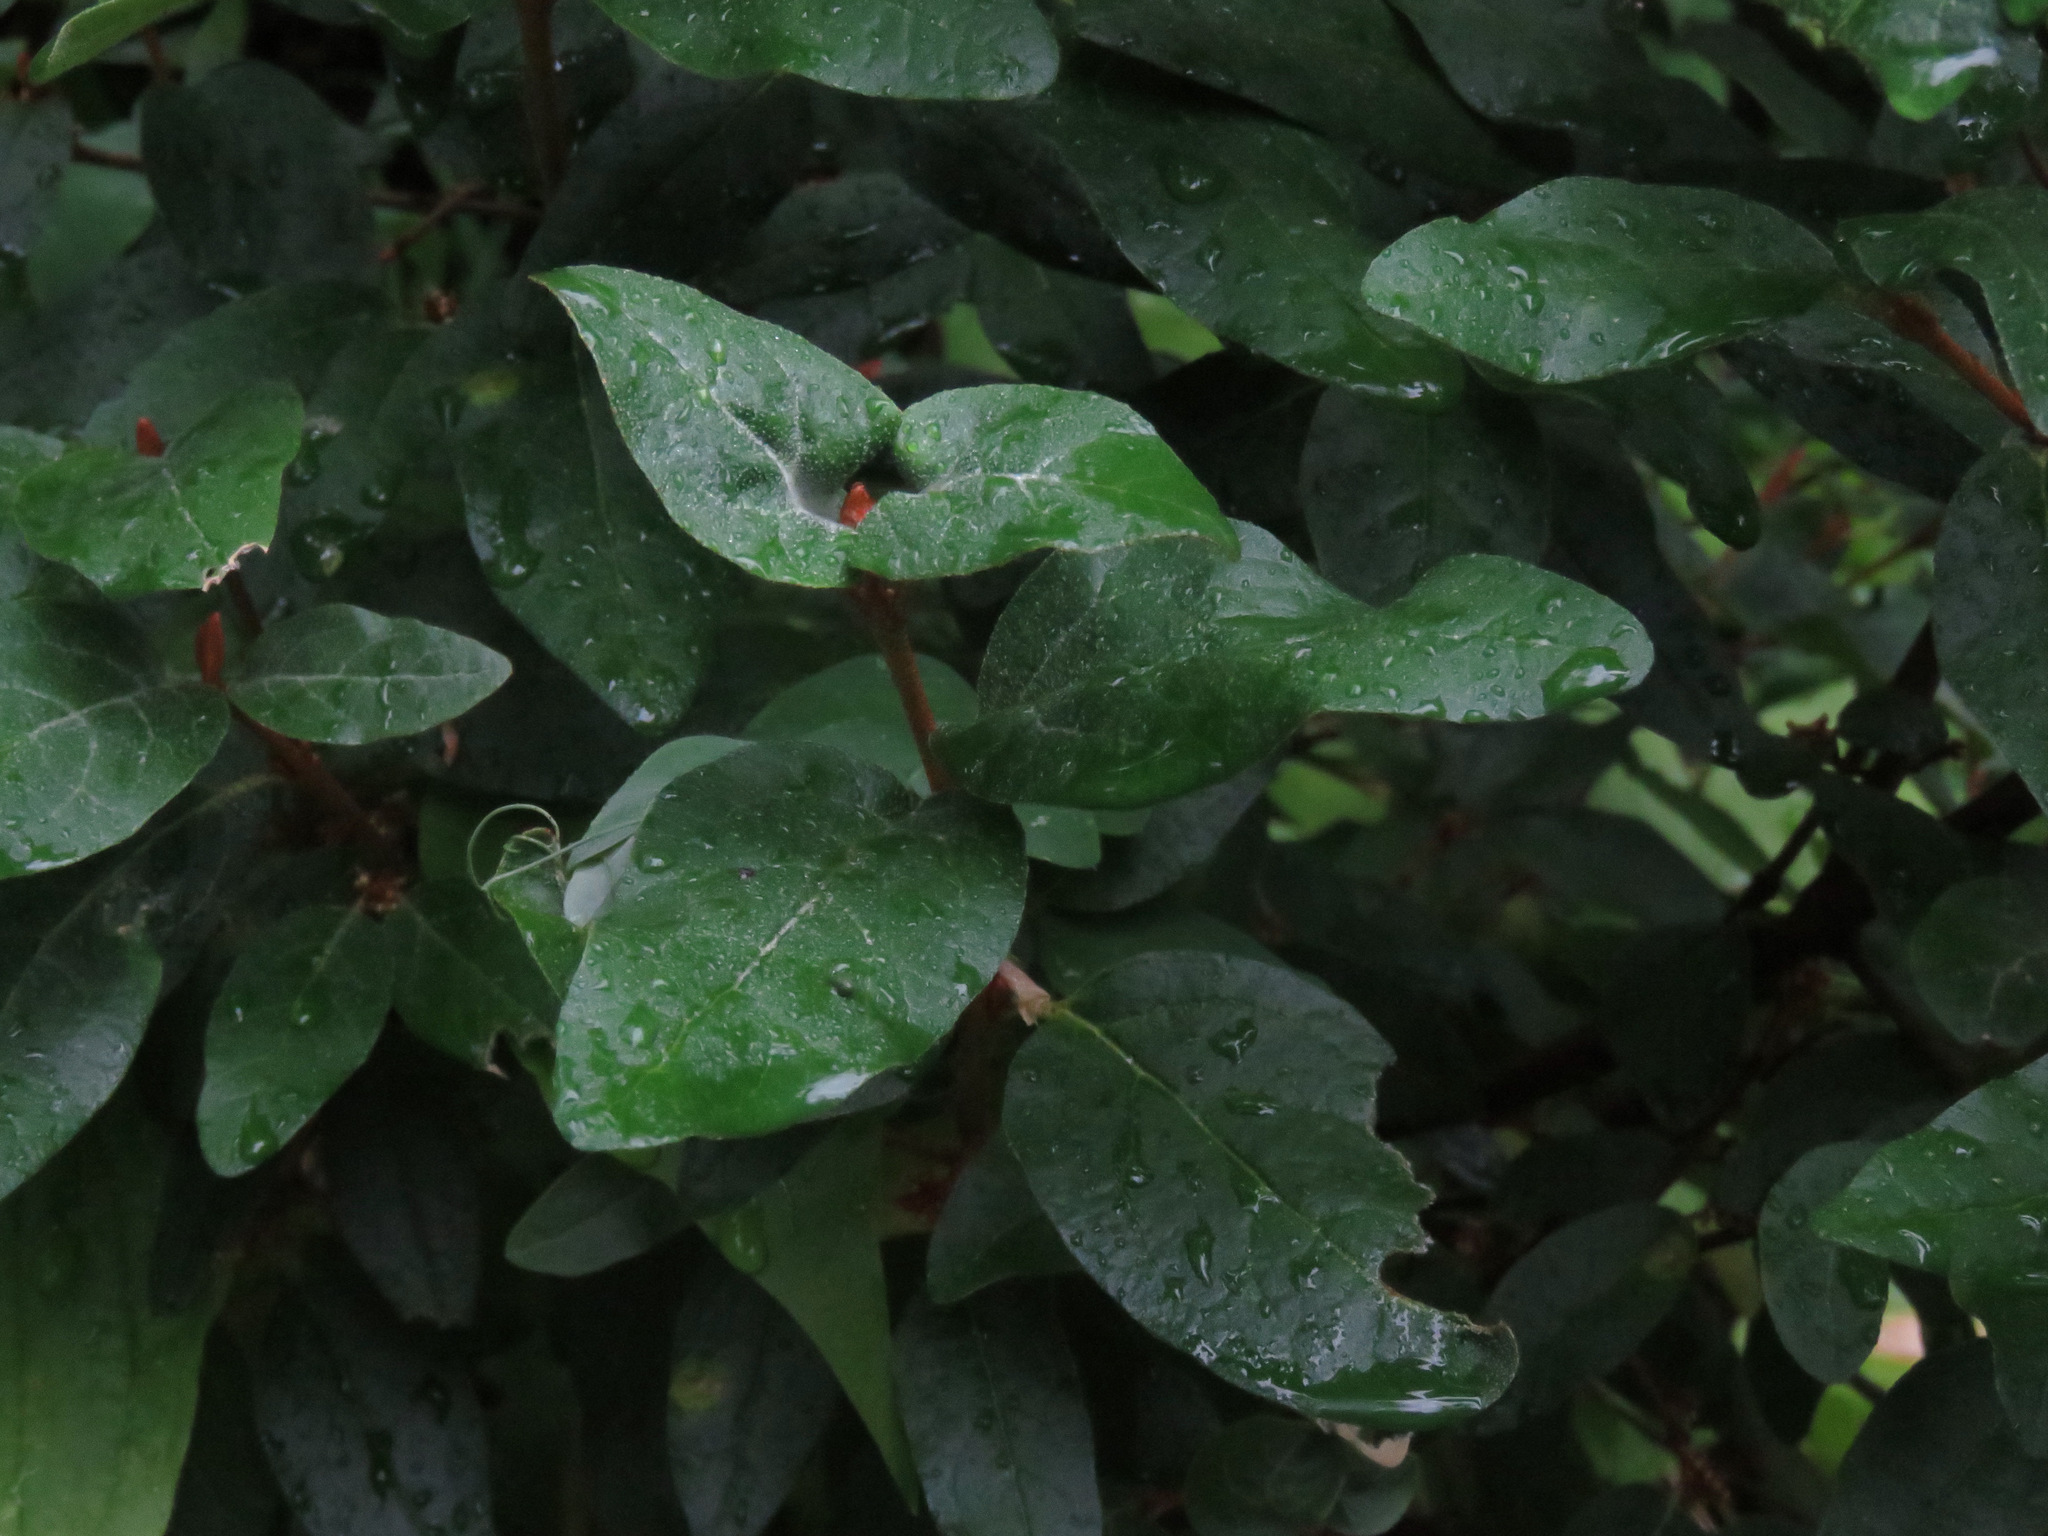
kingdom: Plantae
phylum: Tracheophyta
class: Magnoliopsida
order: Rosales
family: Elaeagnaceae
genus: Shepherdia
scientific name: Shepherdia canadensis
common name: Soapberry
